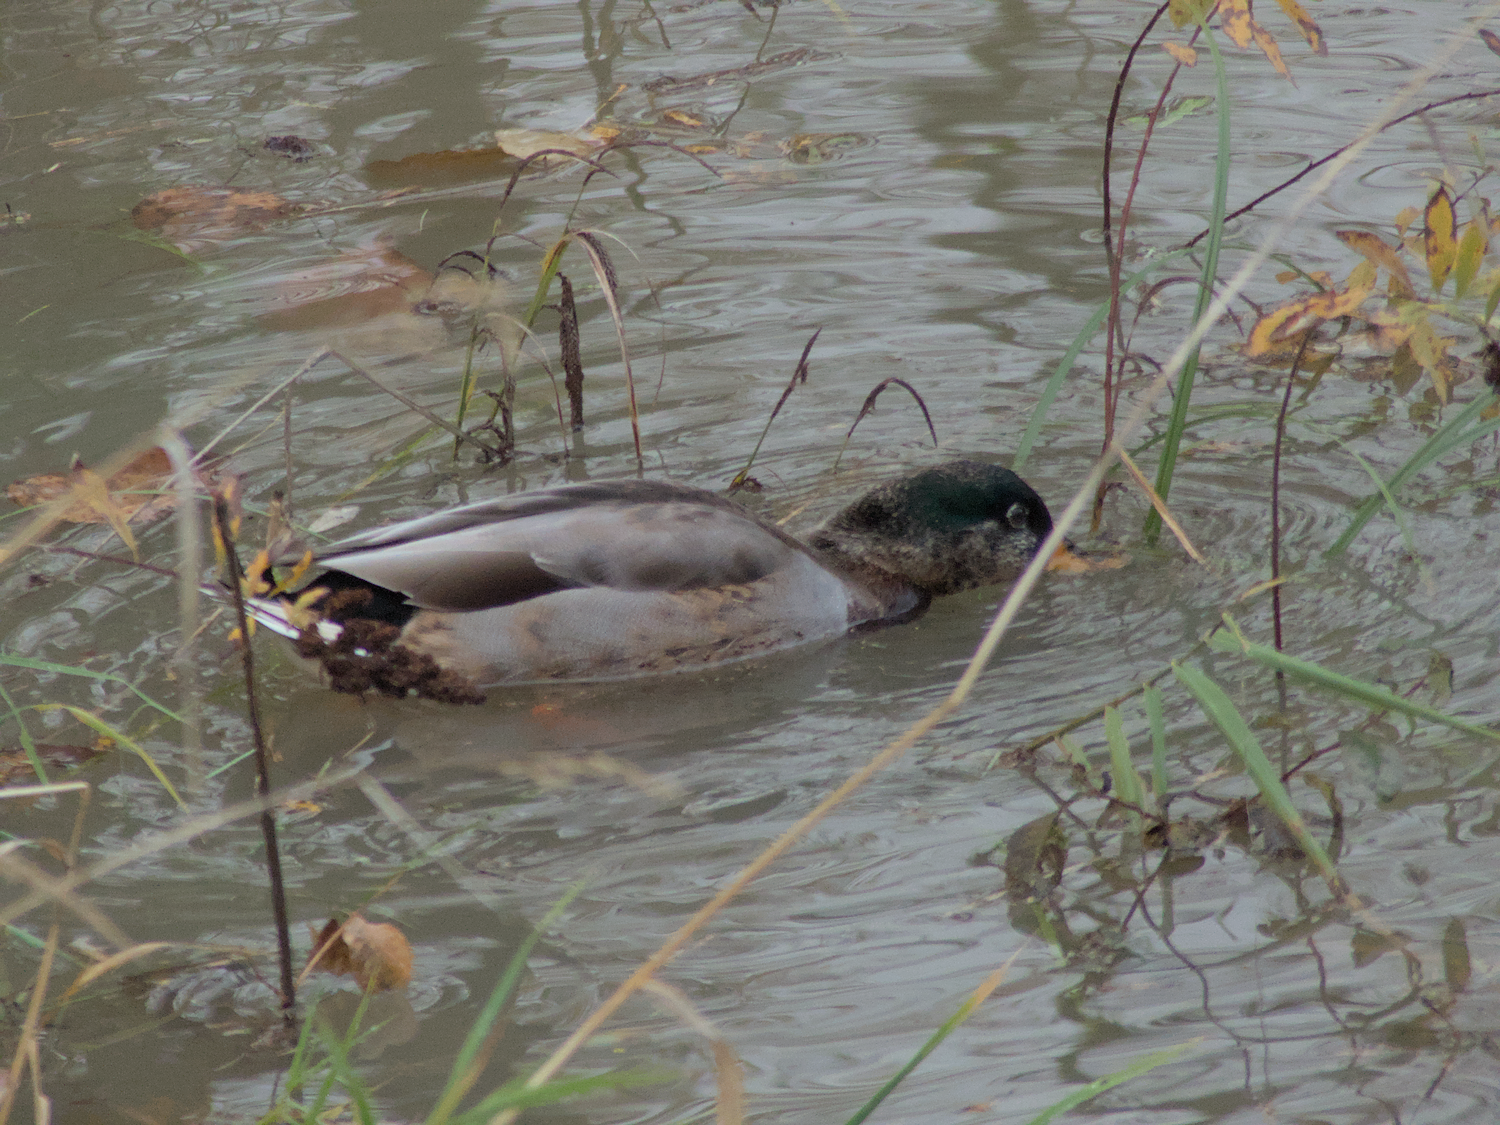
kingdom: Animalia
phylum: Chordata
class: Aves
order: Anseriformes
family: Anatidae
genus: Anas
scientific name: Anas platyrhynchos
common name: Mallard
